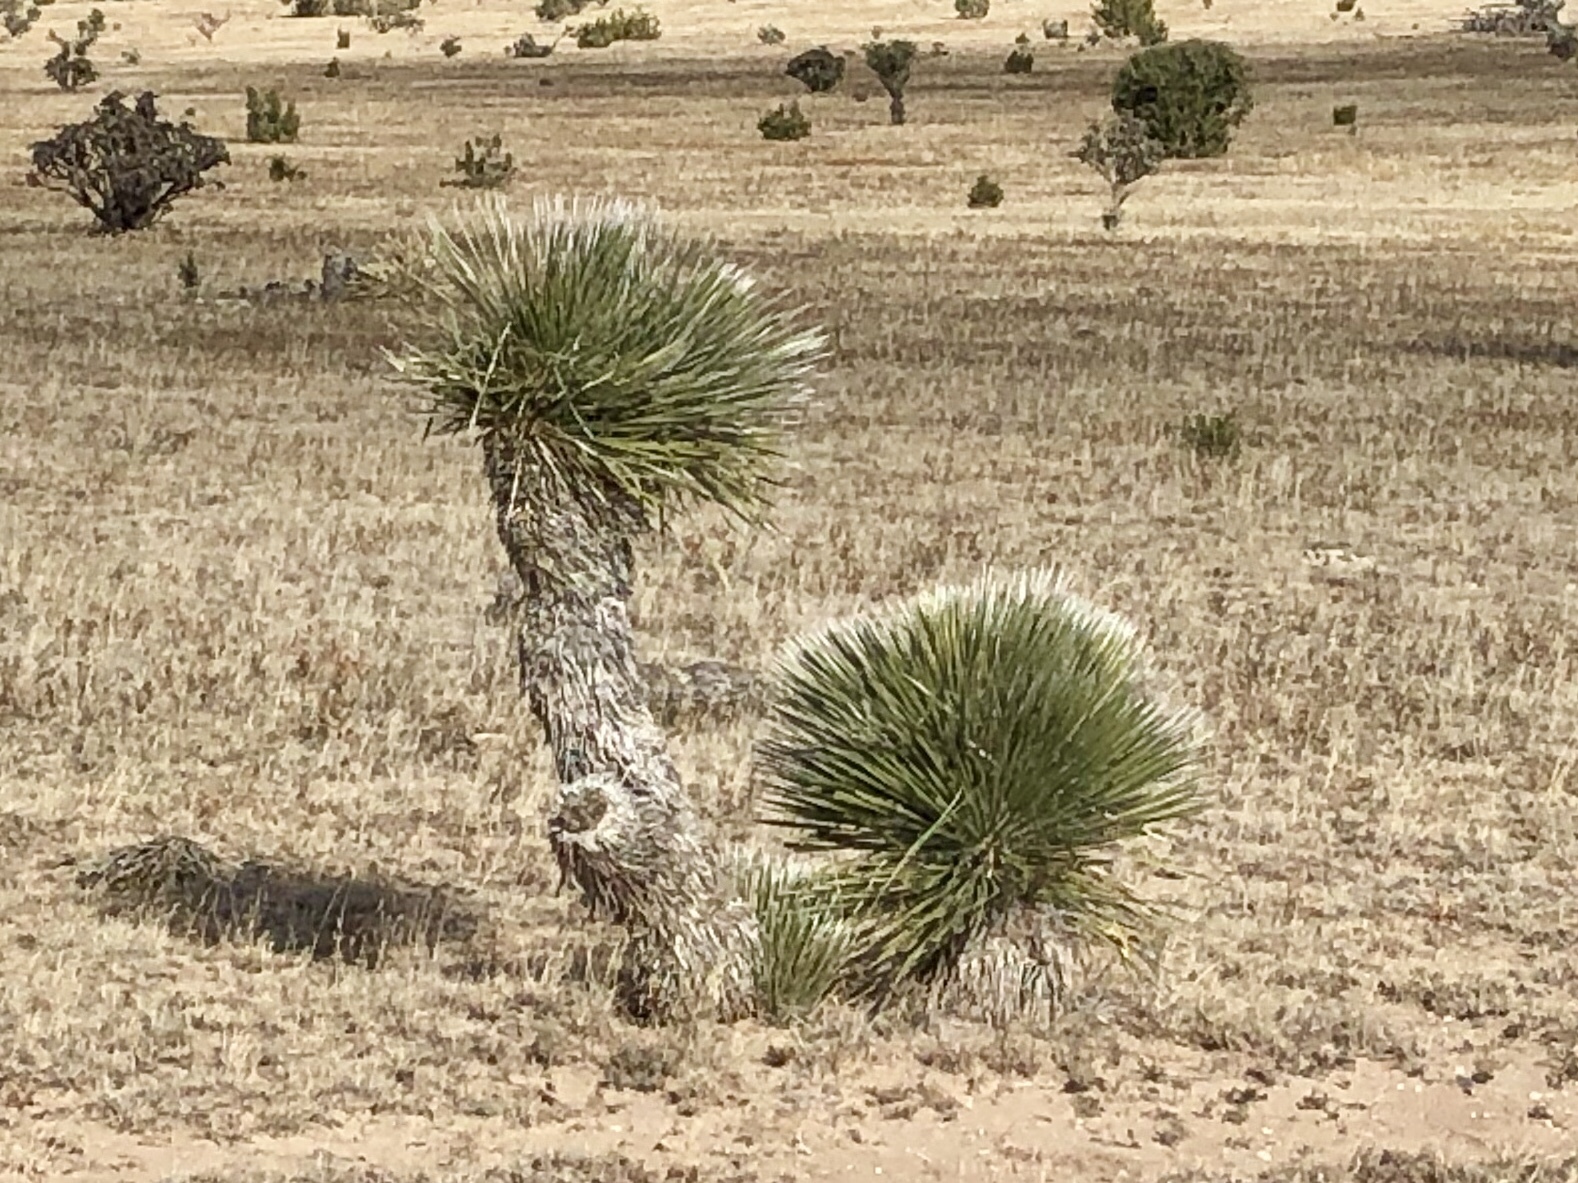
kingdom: Plantae
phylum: Tracheophyta
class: Liliopsida
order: Asparagales
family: Asparagaceae
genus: Yucca
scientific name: Yucca elata
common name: Palmella
